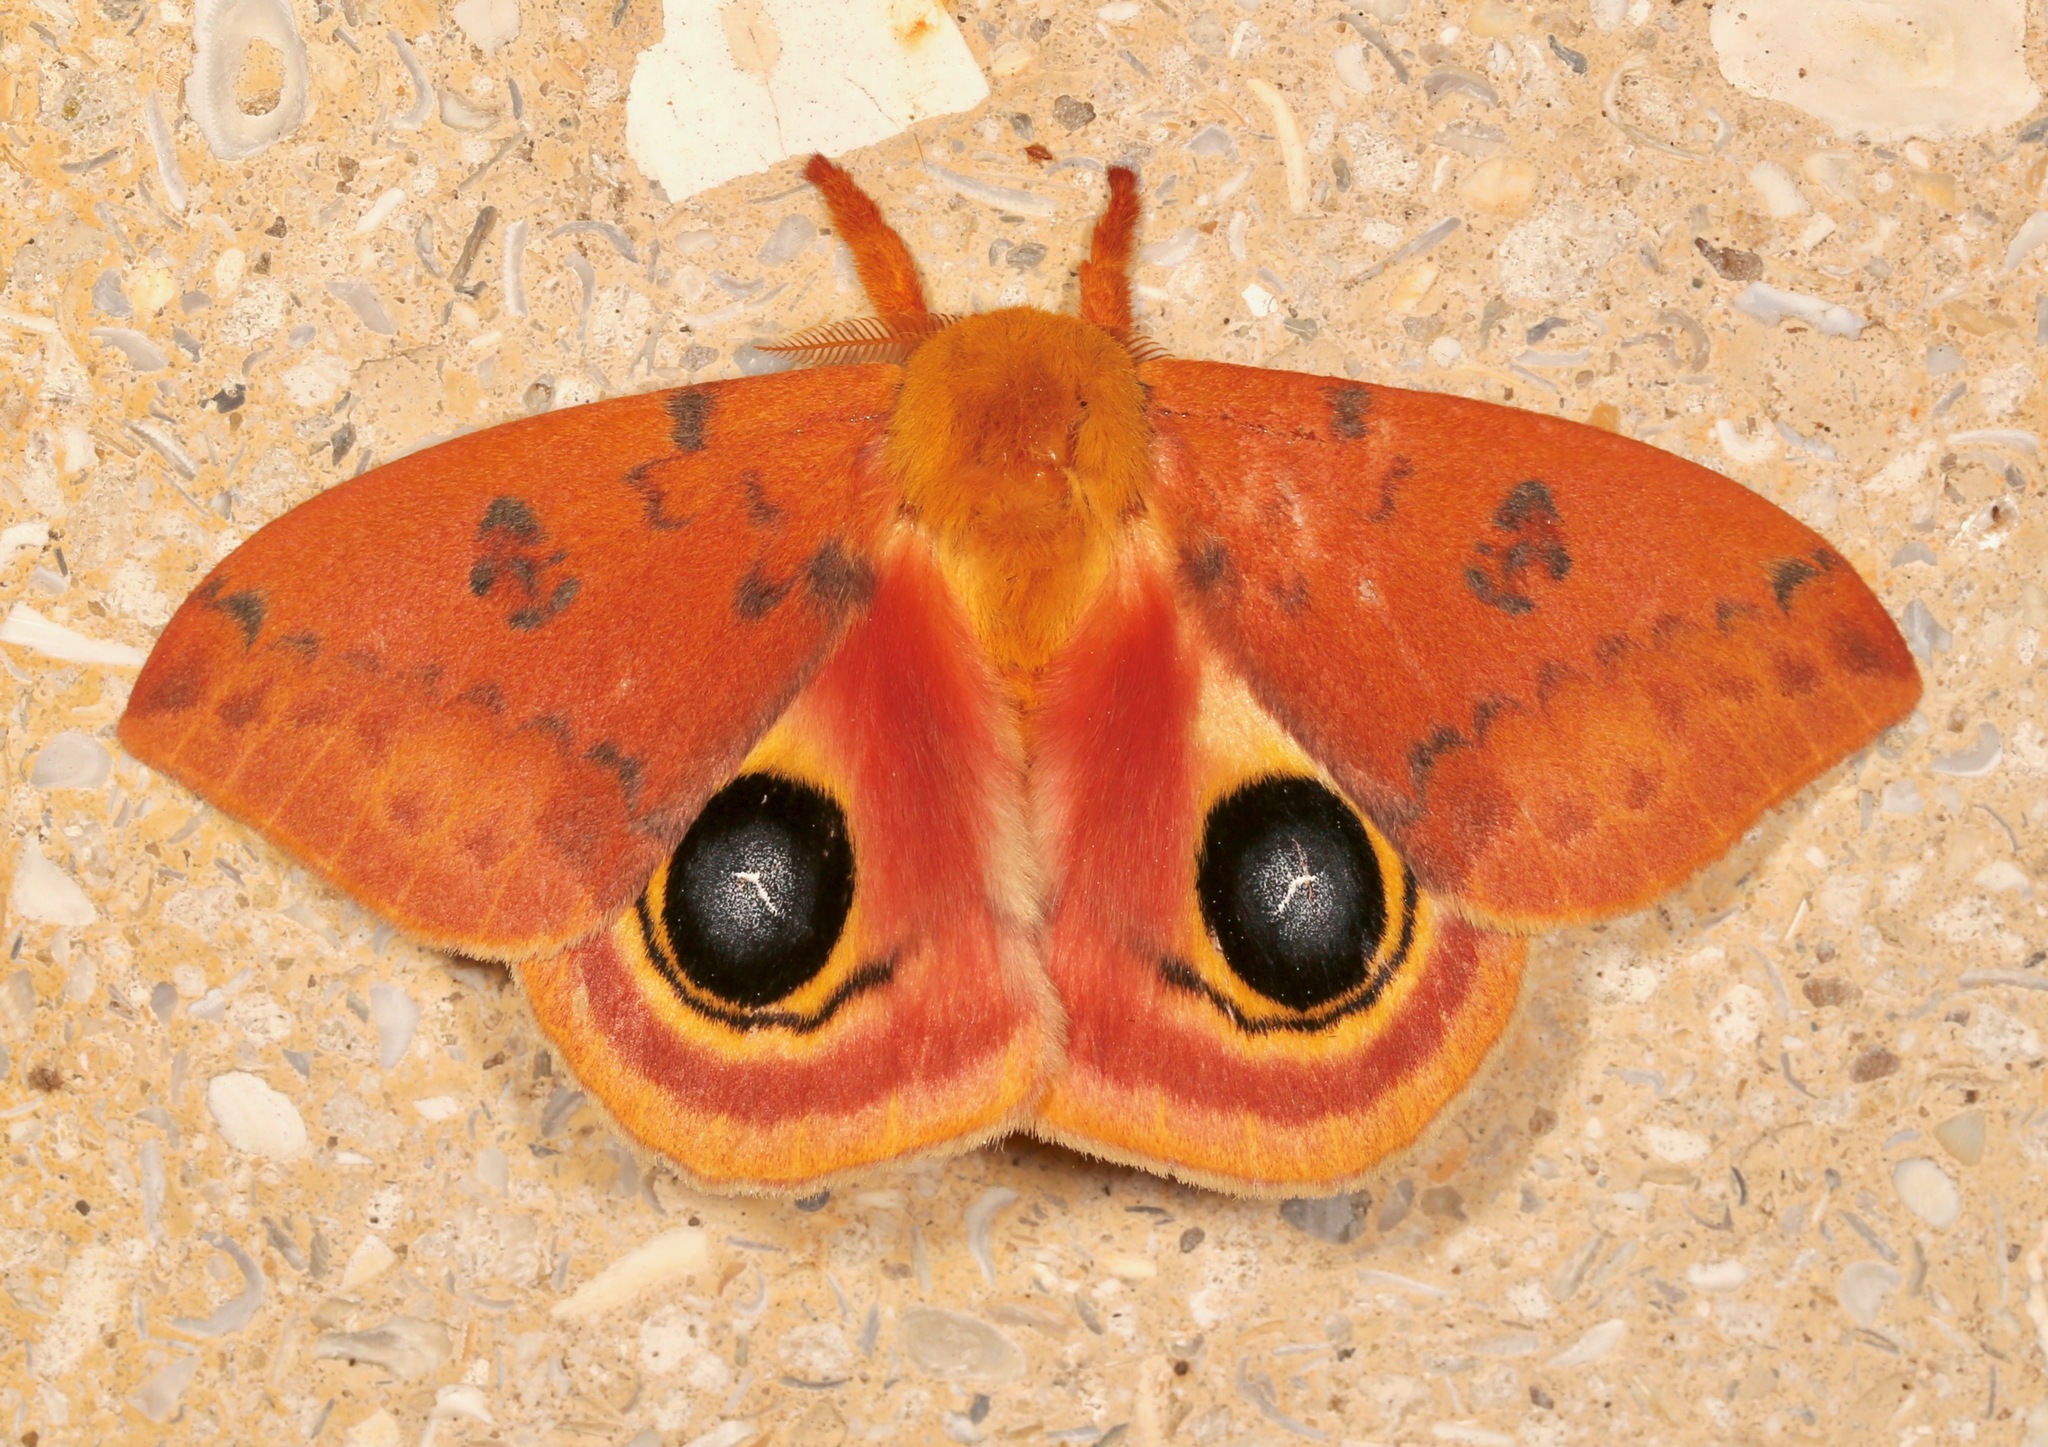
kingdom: Animalia
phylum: Arthropoda
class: Insecta
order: Lepidoptera
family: Saturniidae
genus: Automeris
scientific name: Automeris io
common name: Io moth
